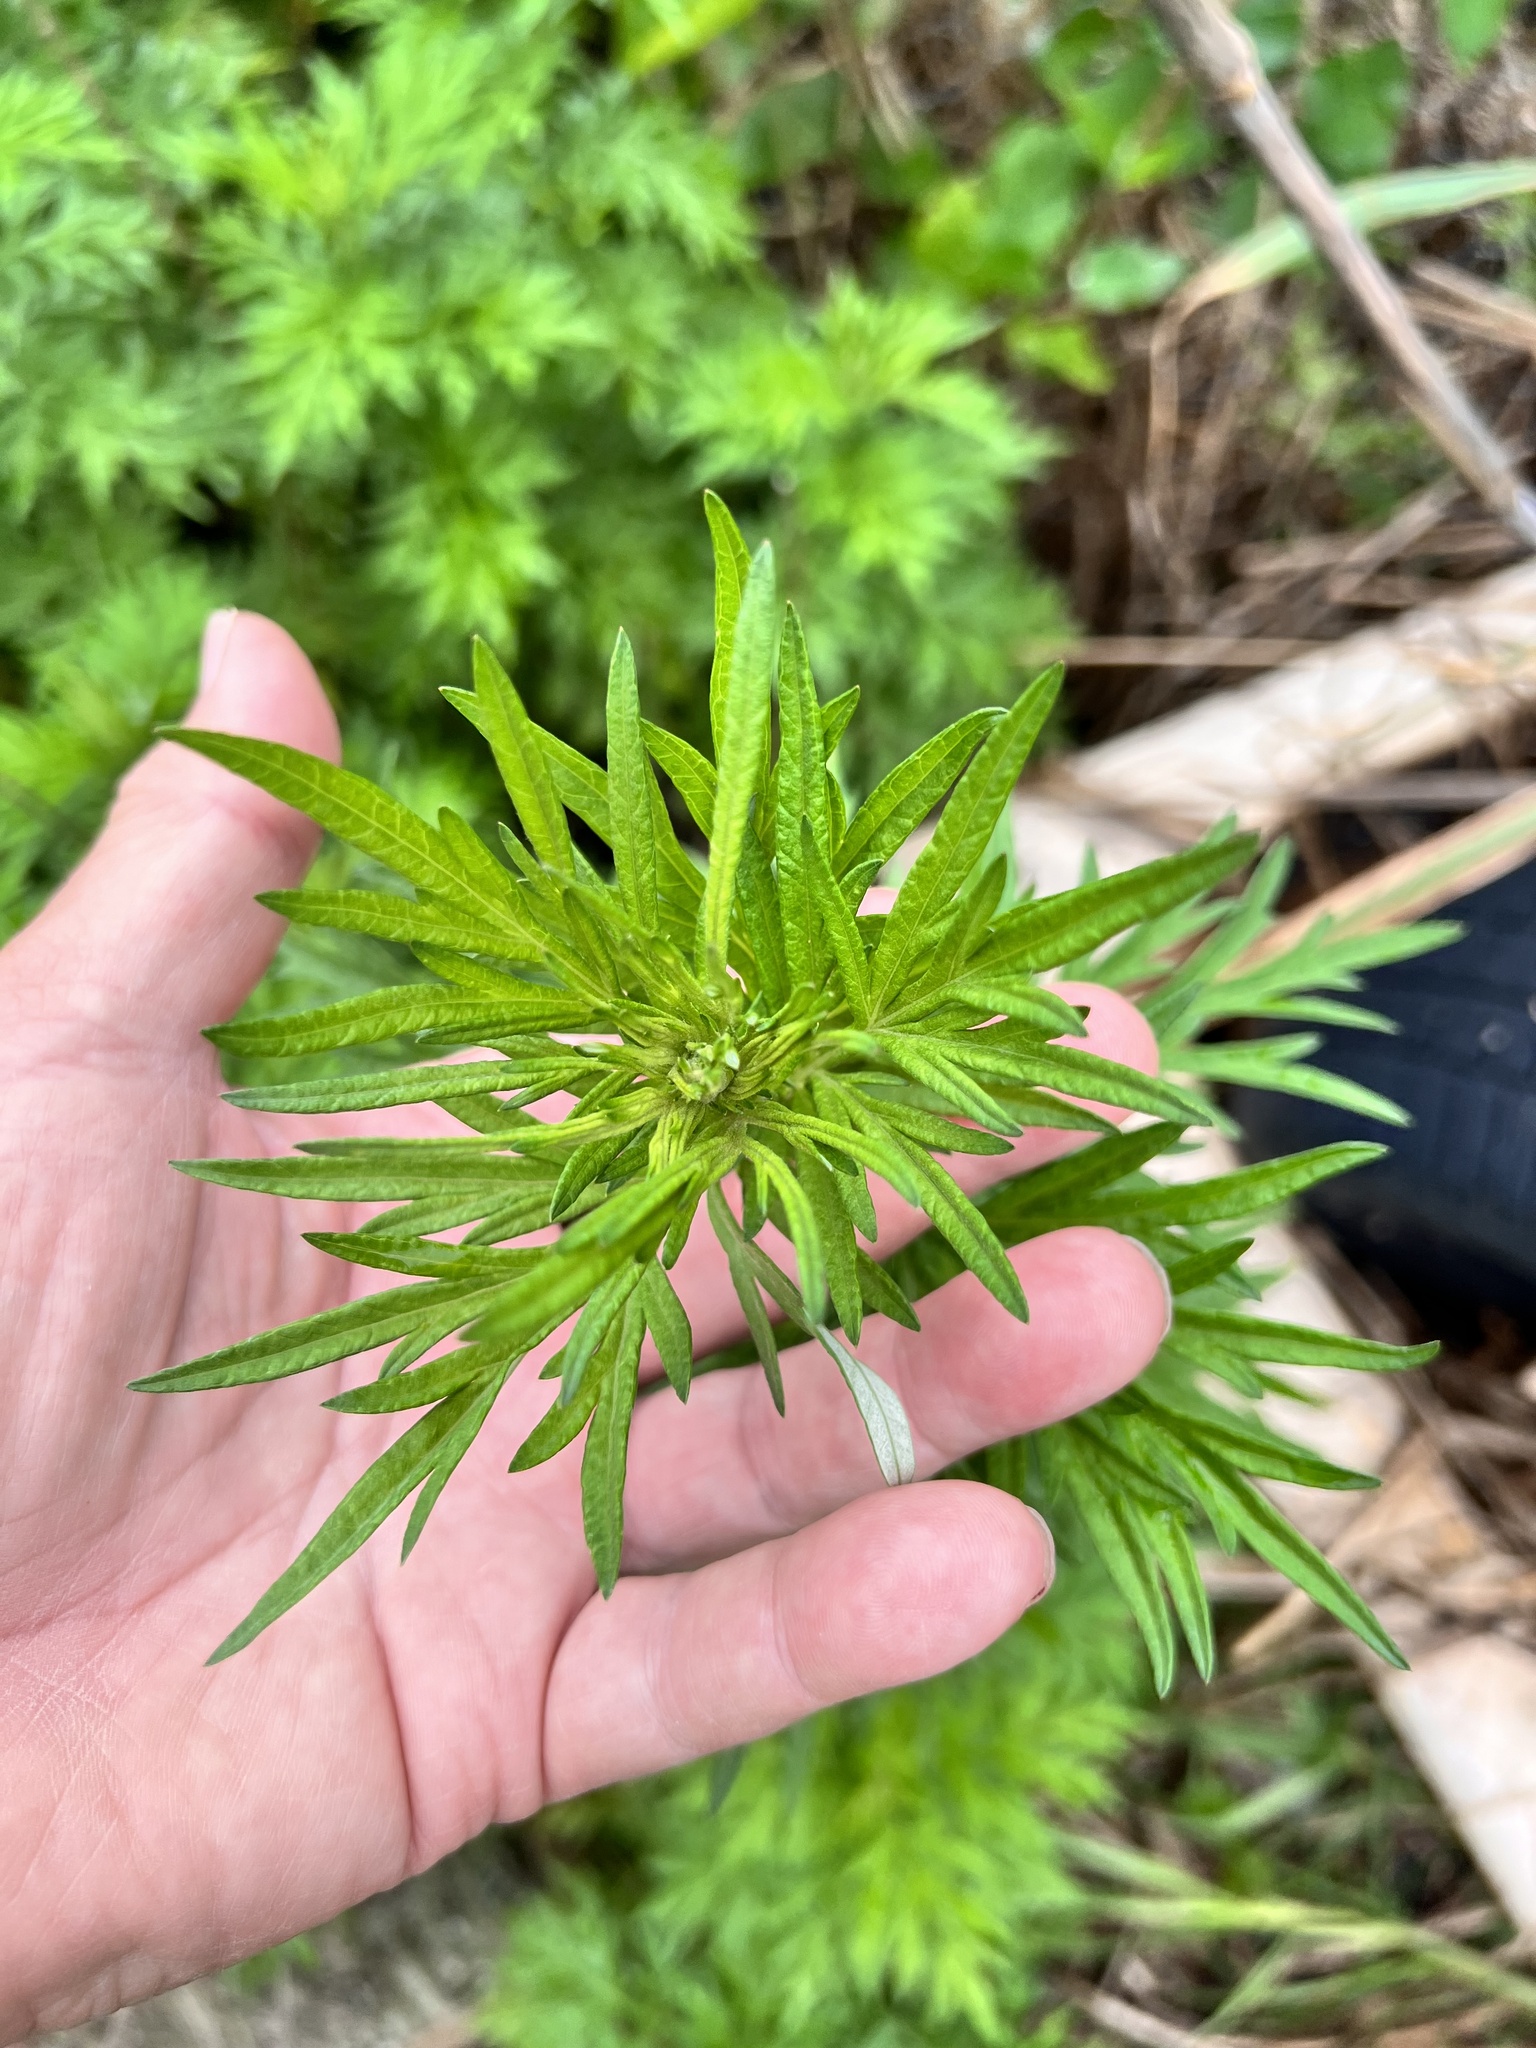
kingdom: Plantae
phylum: Tracheophyta
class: Magnoliopsida
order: Asterales
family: Asteraceae
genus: Artemisia
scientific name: Artemisia verlotiorum
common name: Chinese mugwort
